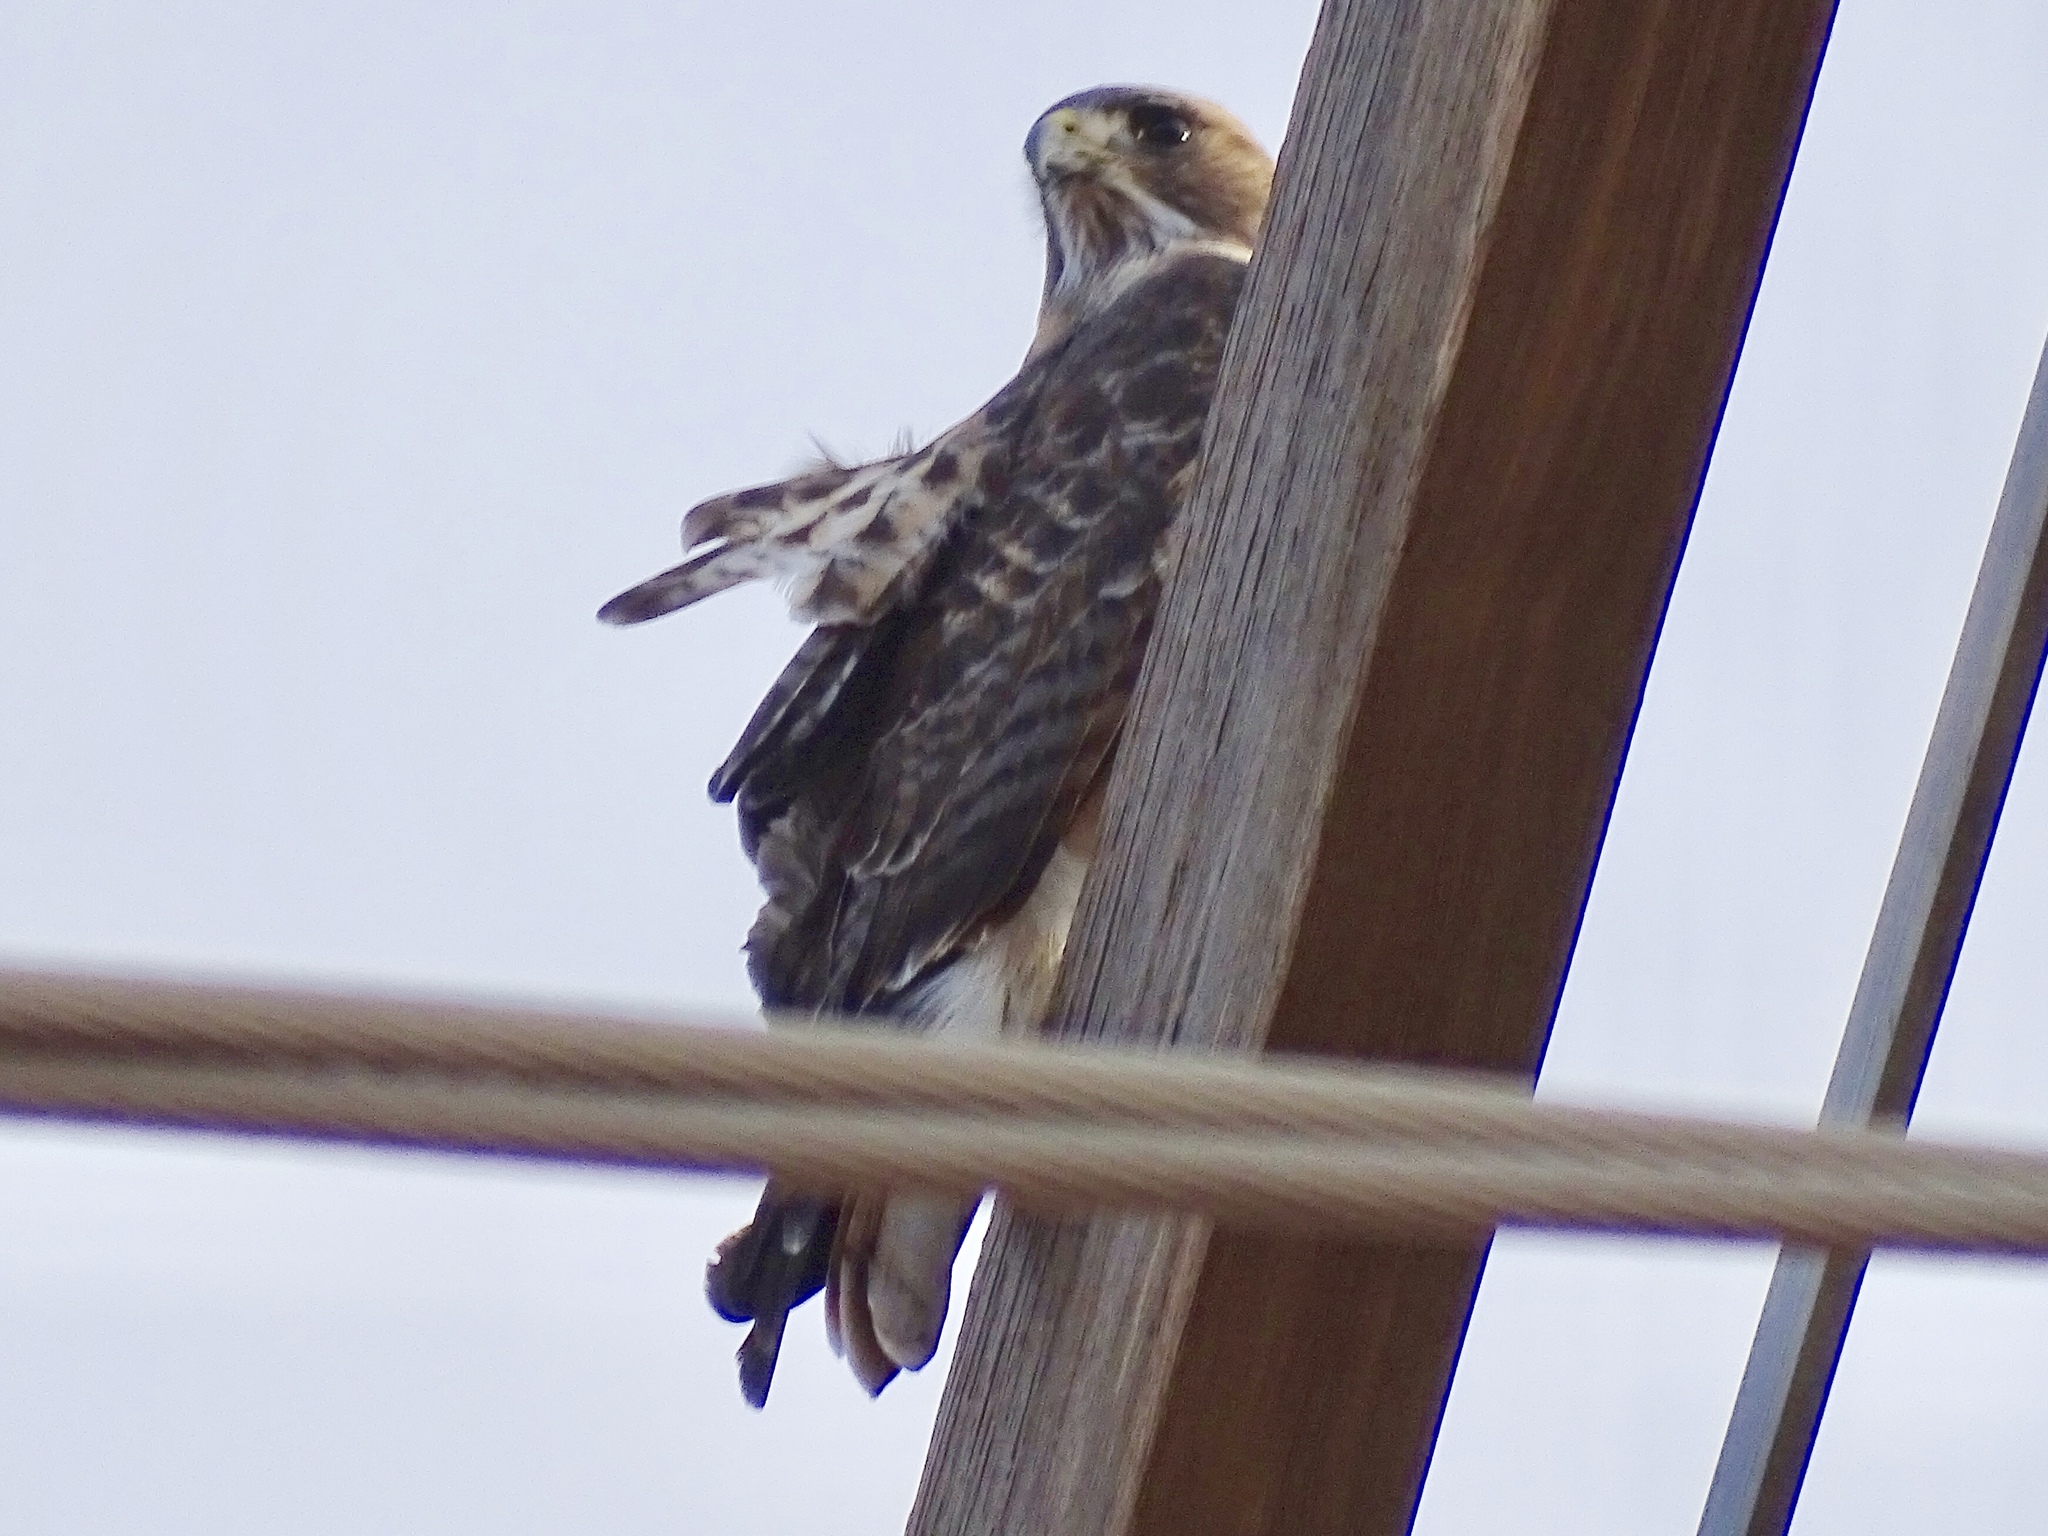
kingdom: Animalia
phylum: Chordata
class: Aves
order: Accipitriformes
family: Accipitridae
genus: Buteo
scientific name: Buteo jamaicensis
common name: Red-tailed hawk
